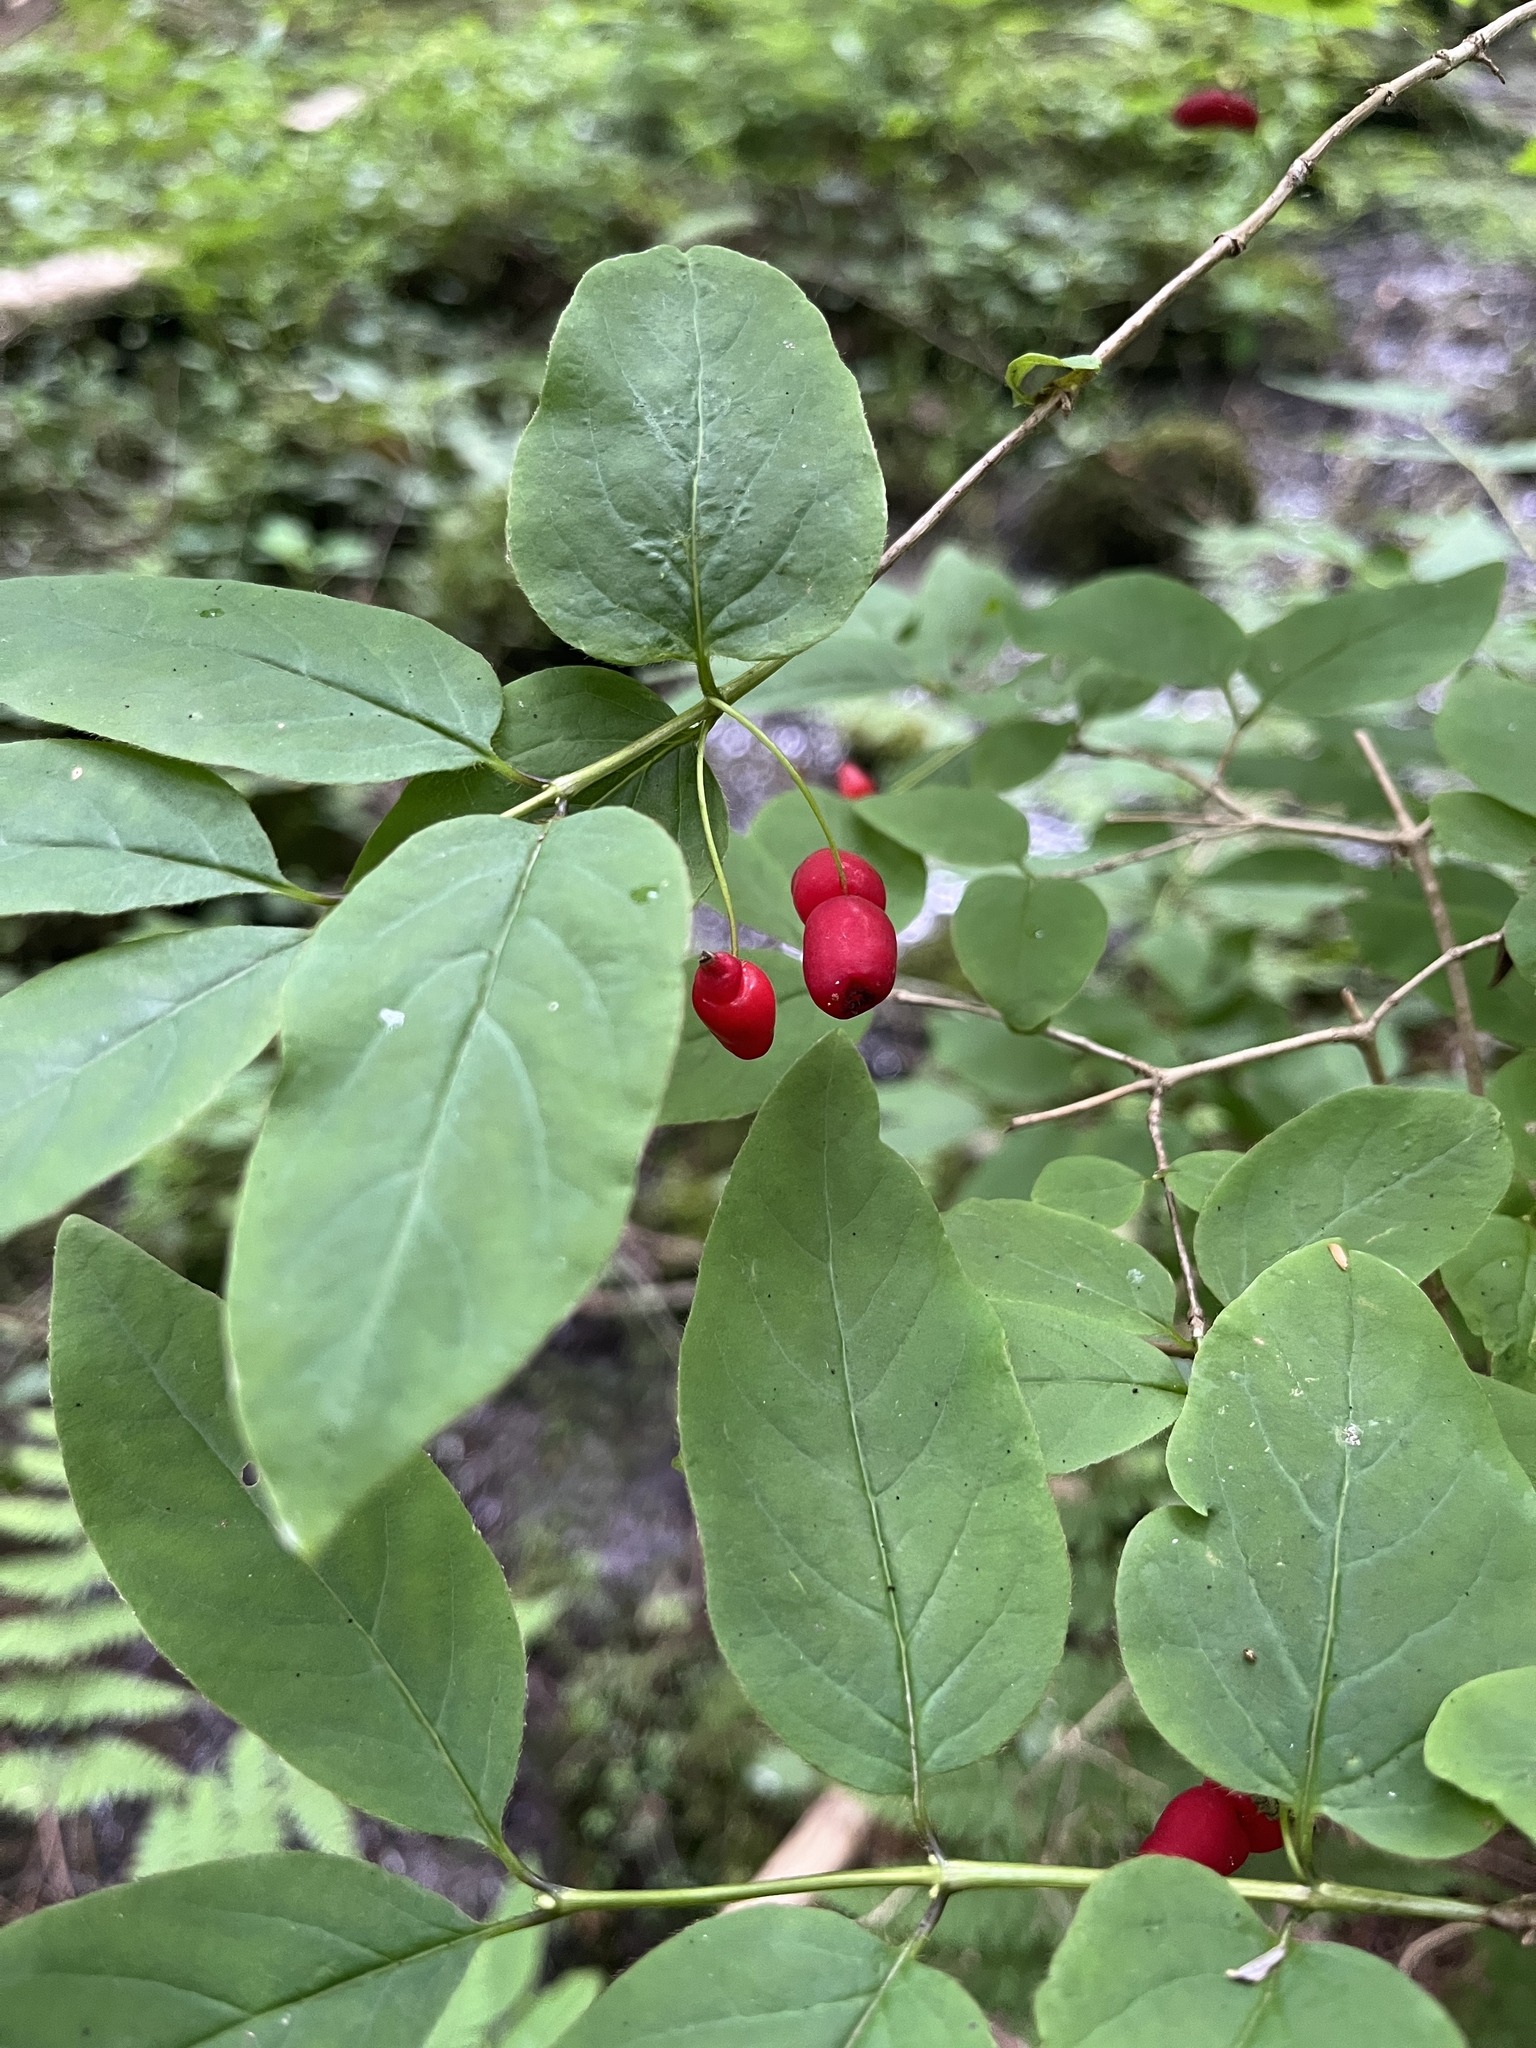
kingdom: Plantae
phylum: Tracheophyta
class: Magnoliopsida
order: Dipsacales
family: Caprifoliaceae
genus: Lonicera
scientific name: Lonicera canadensis
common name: American fly-honeysuckle
